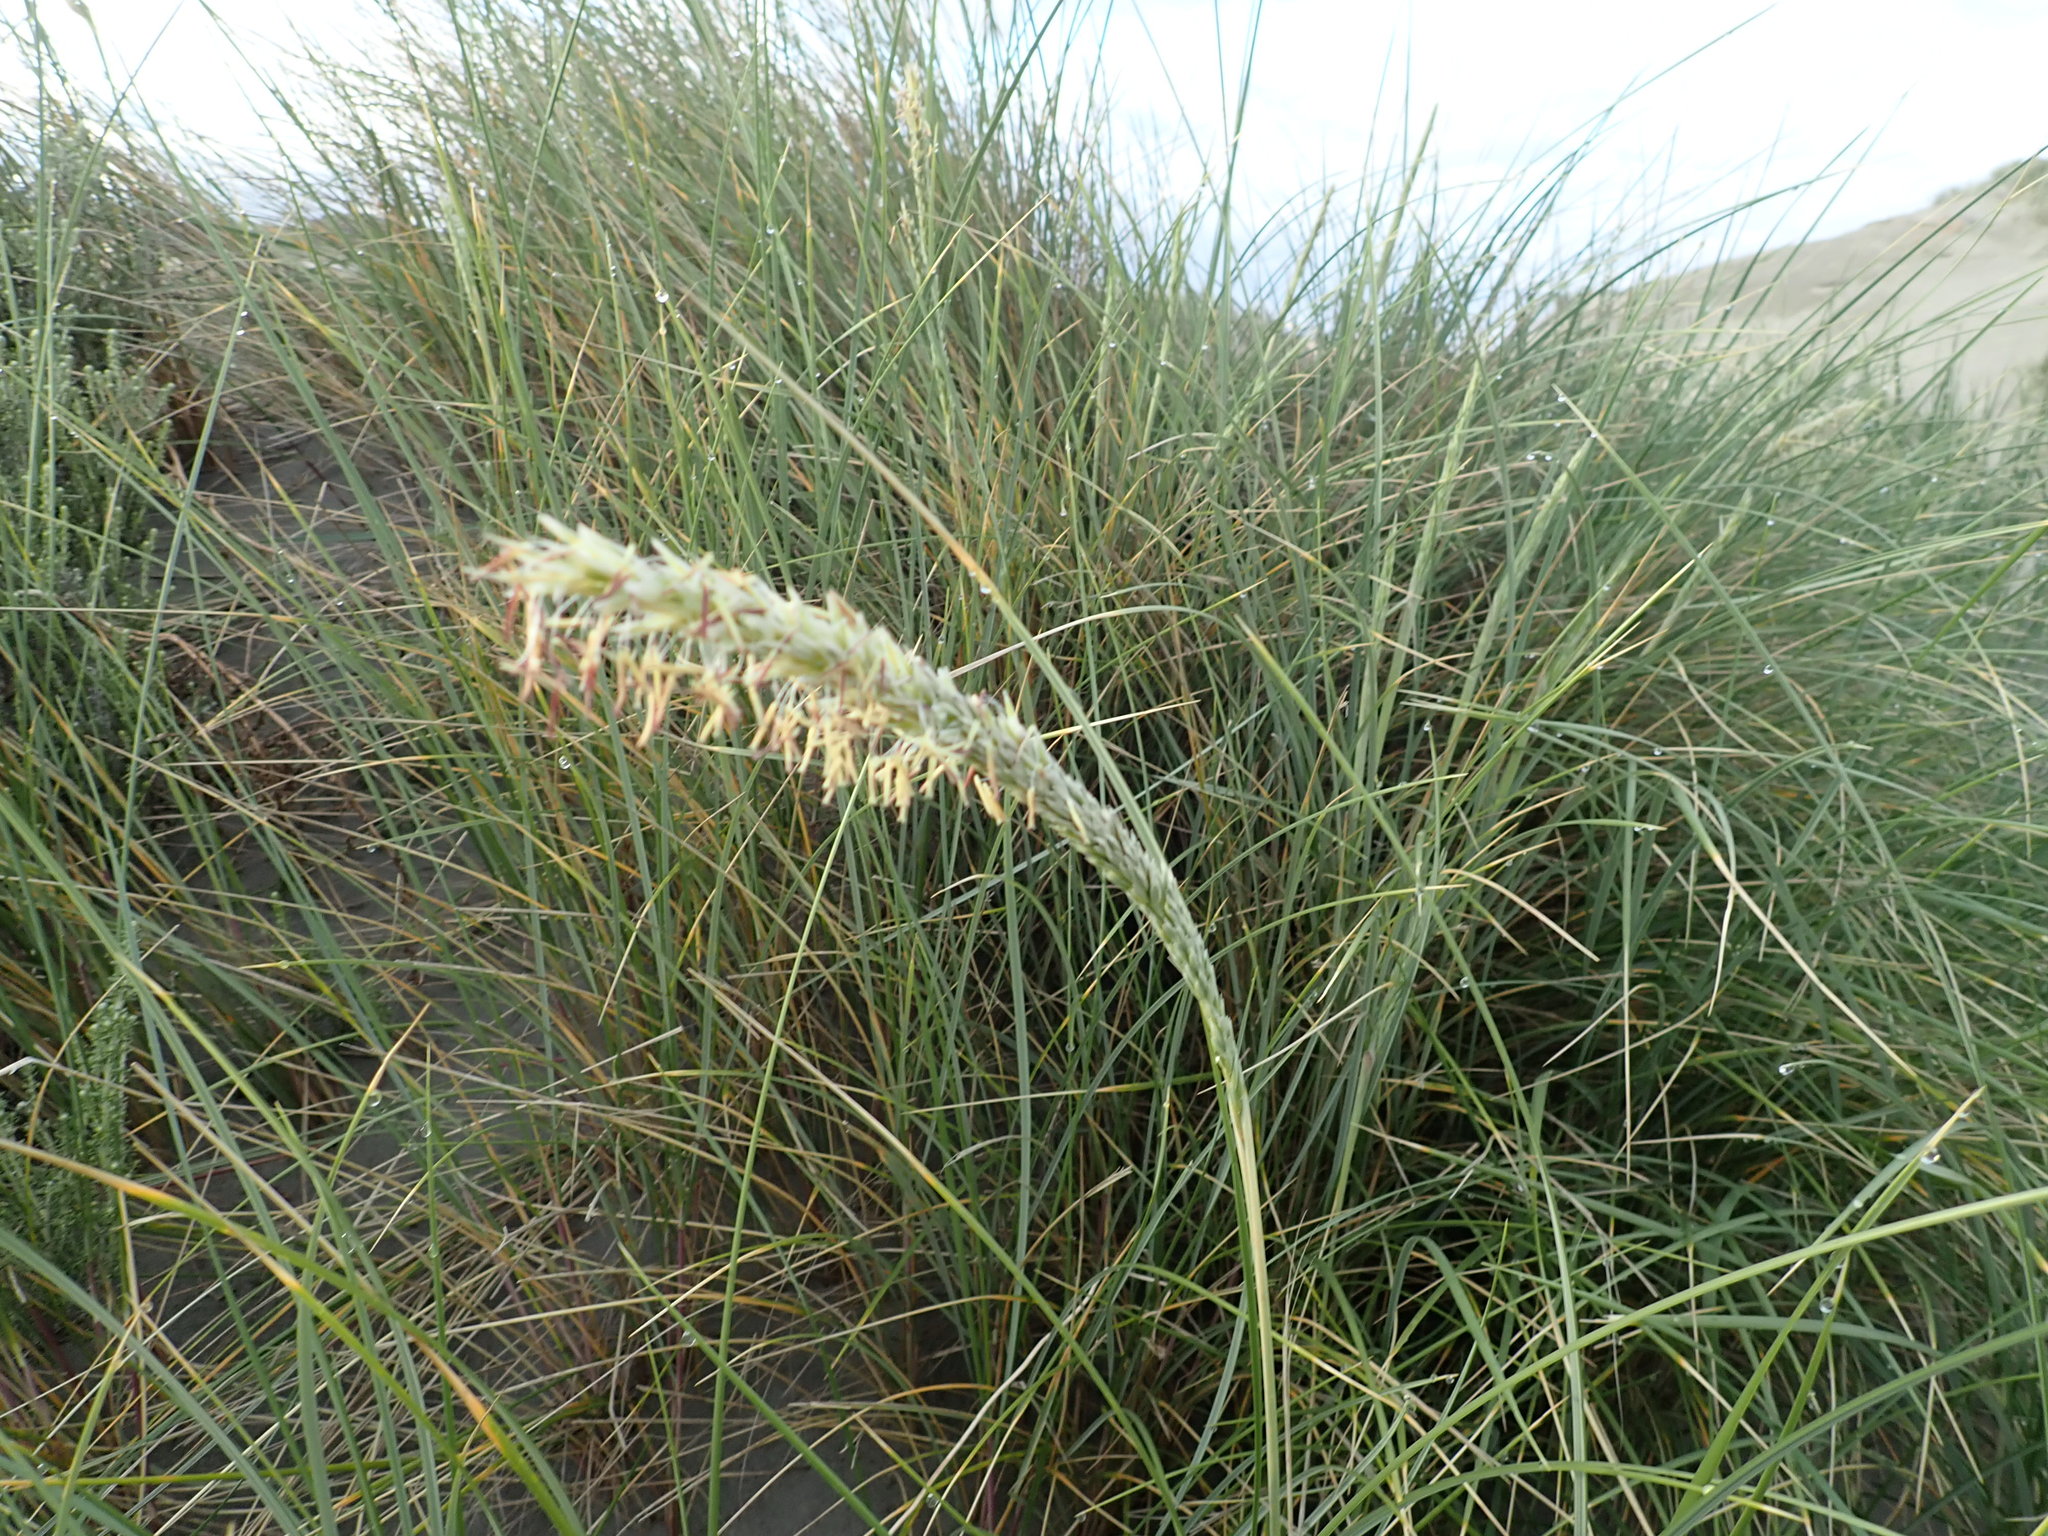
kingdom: Plantae
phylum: Tracheophyta
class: Liliopsida
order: Poales
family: Poaceae
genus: Calamagrostis
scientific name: Calamagrostis arenaria
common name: European beachgrass
